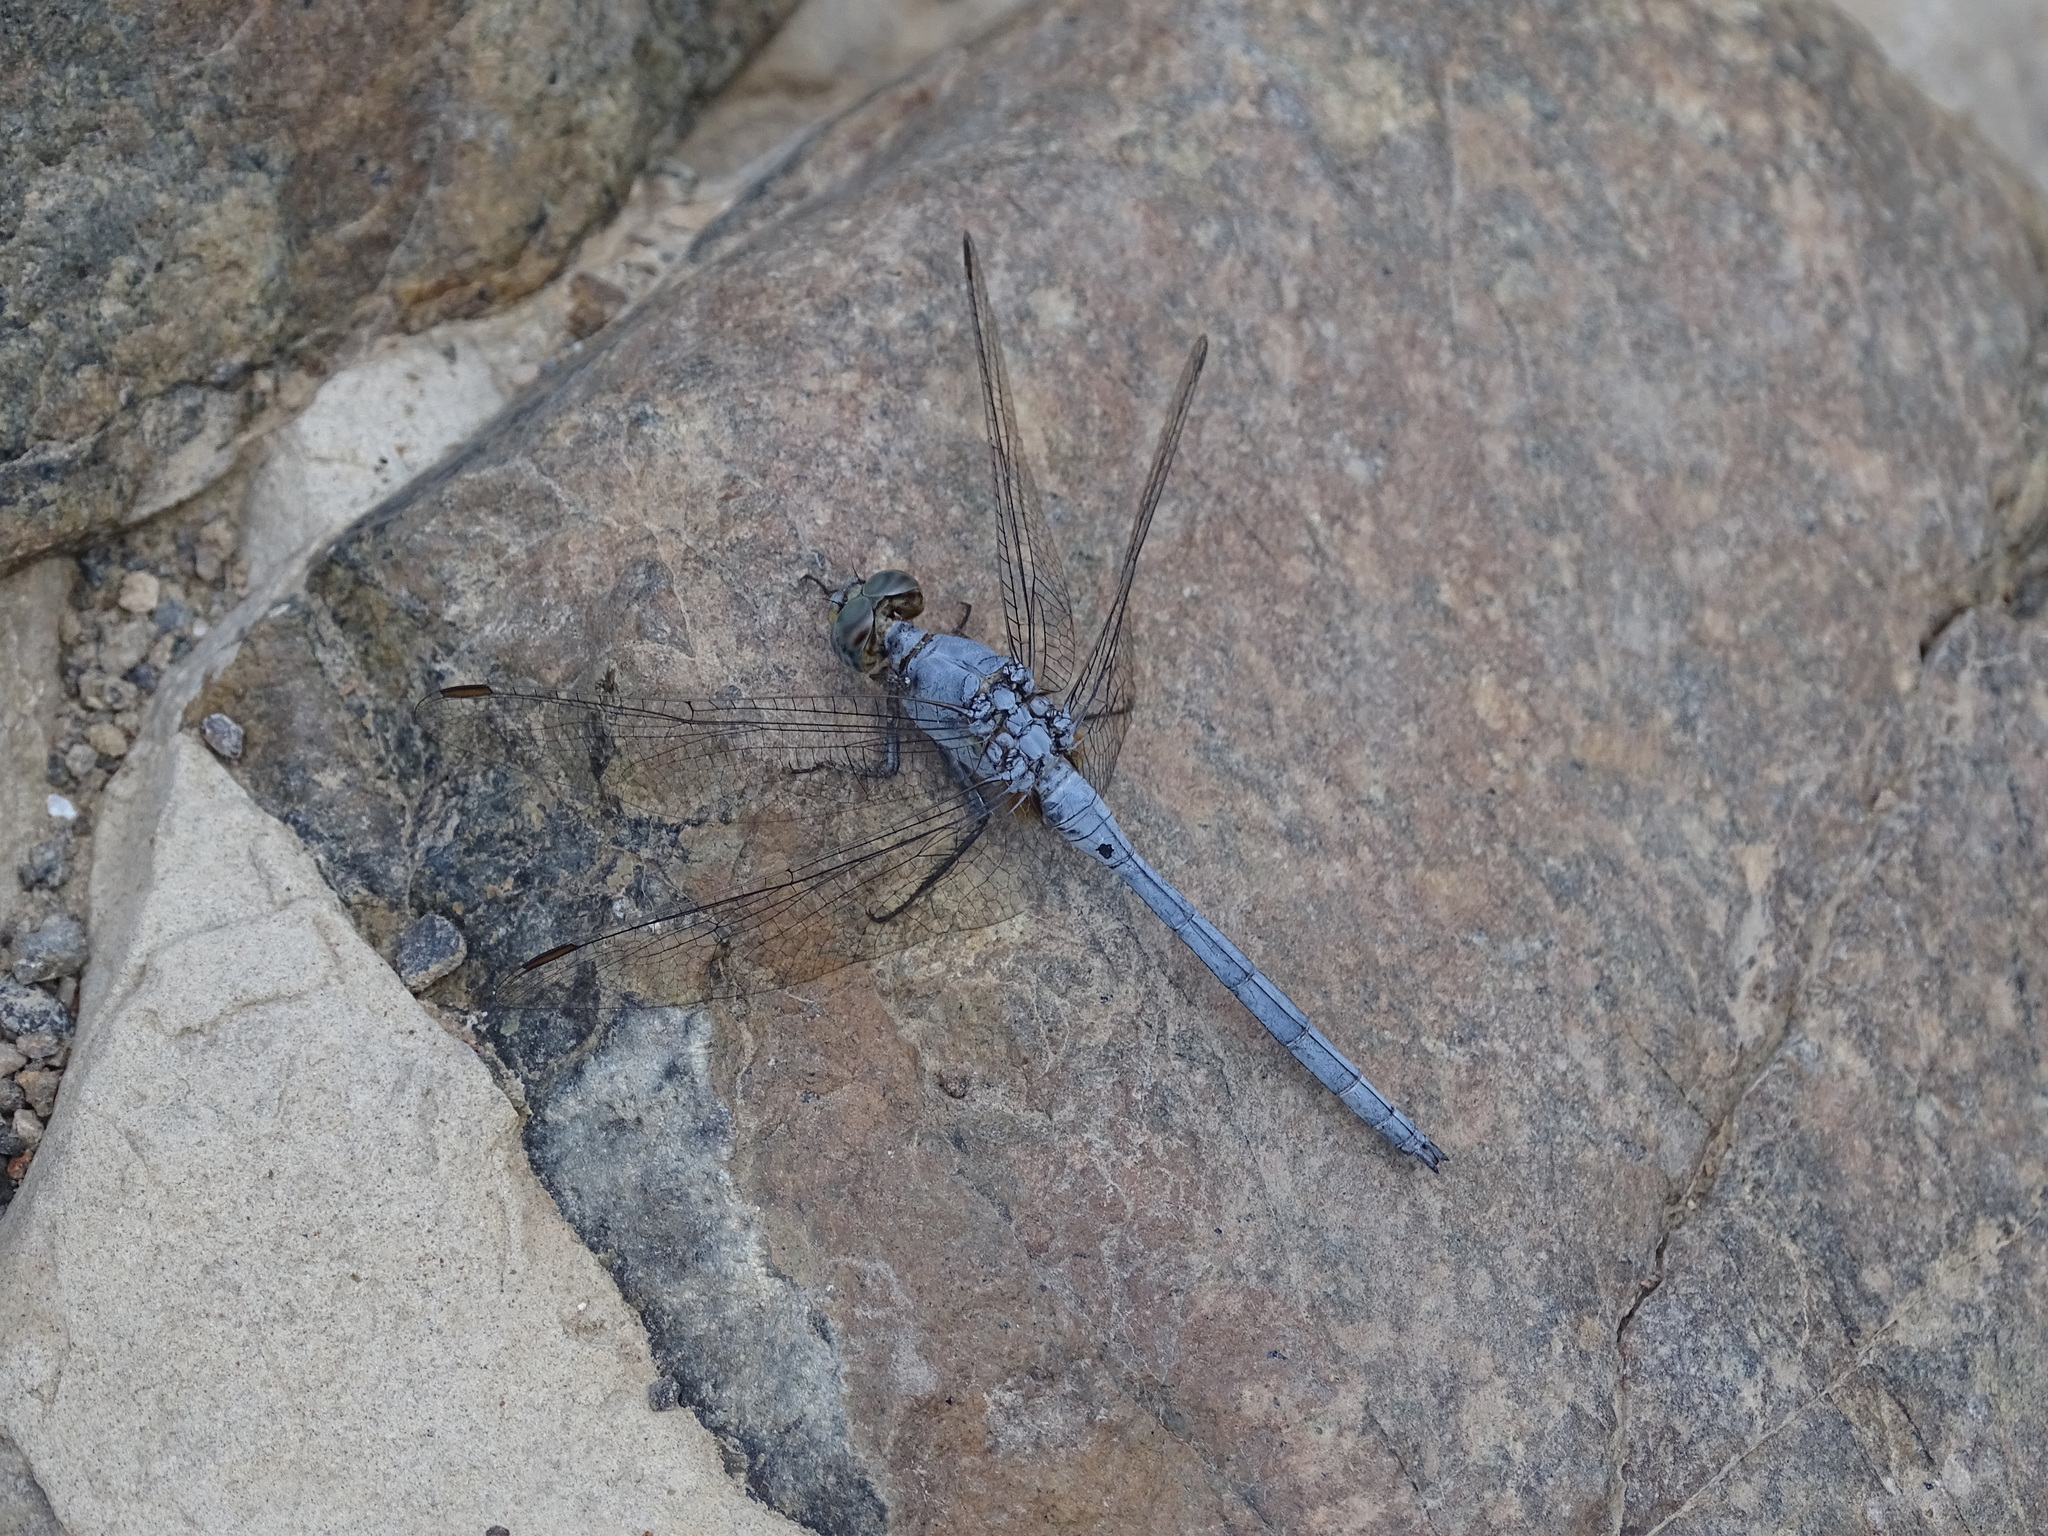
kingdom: Animalia
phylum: Arthropoda
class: Insecta
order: Odonata
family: Libellulidae
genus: Orthetrum
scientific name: Orthetrum chrysostigma
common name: Epaulet skimmer
